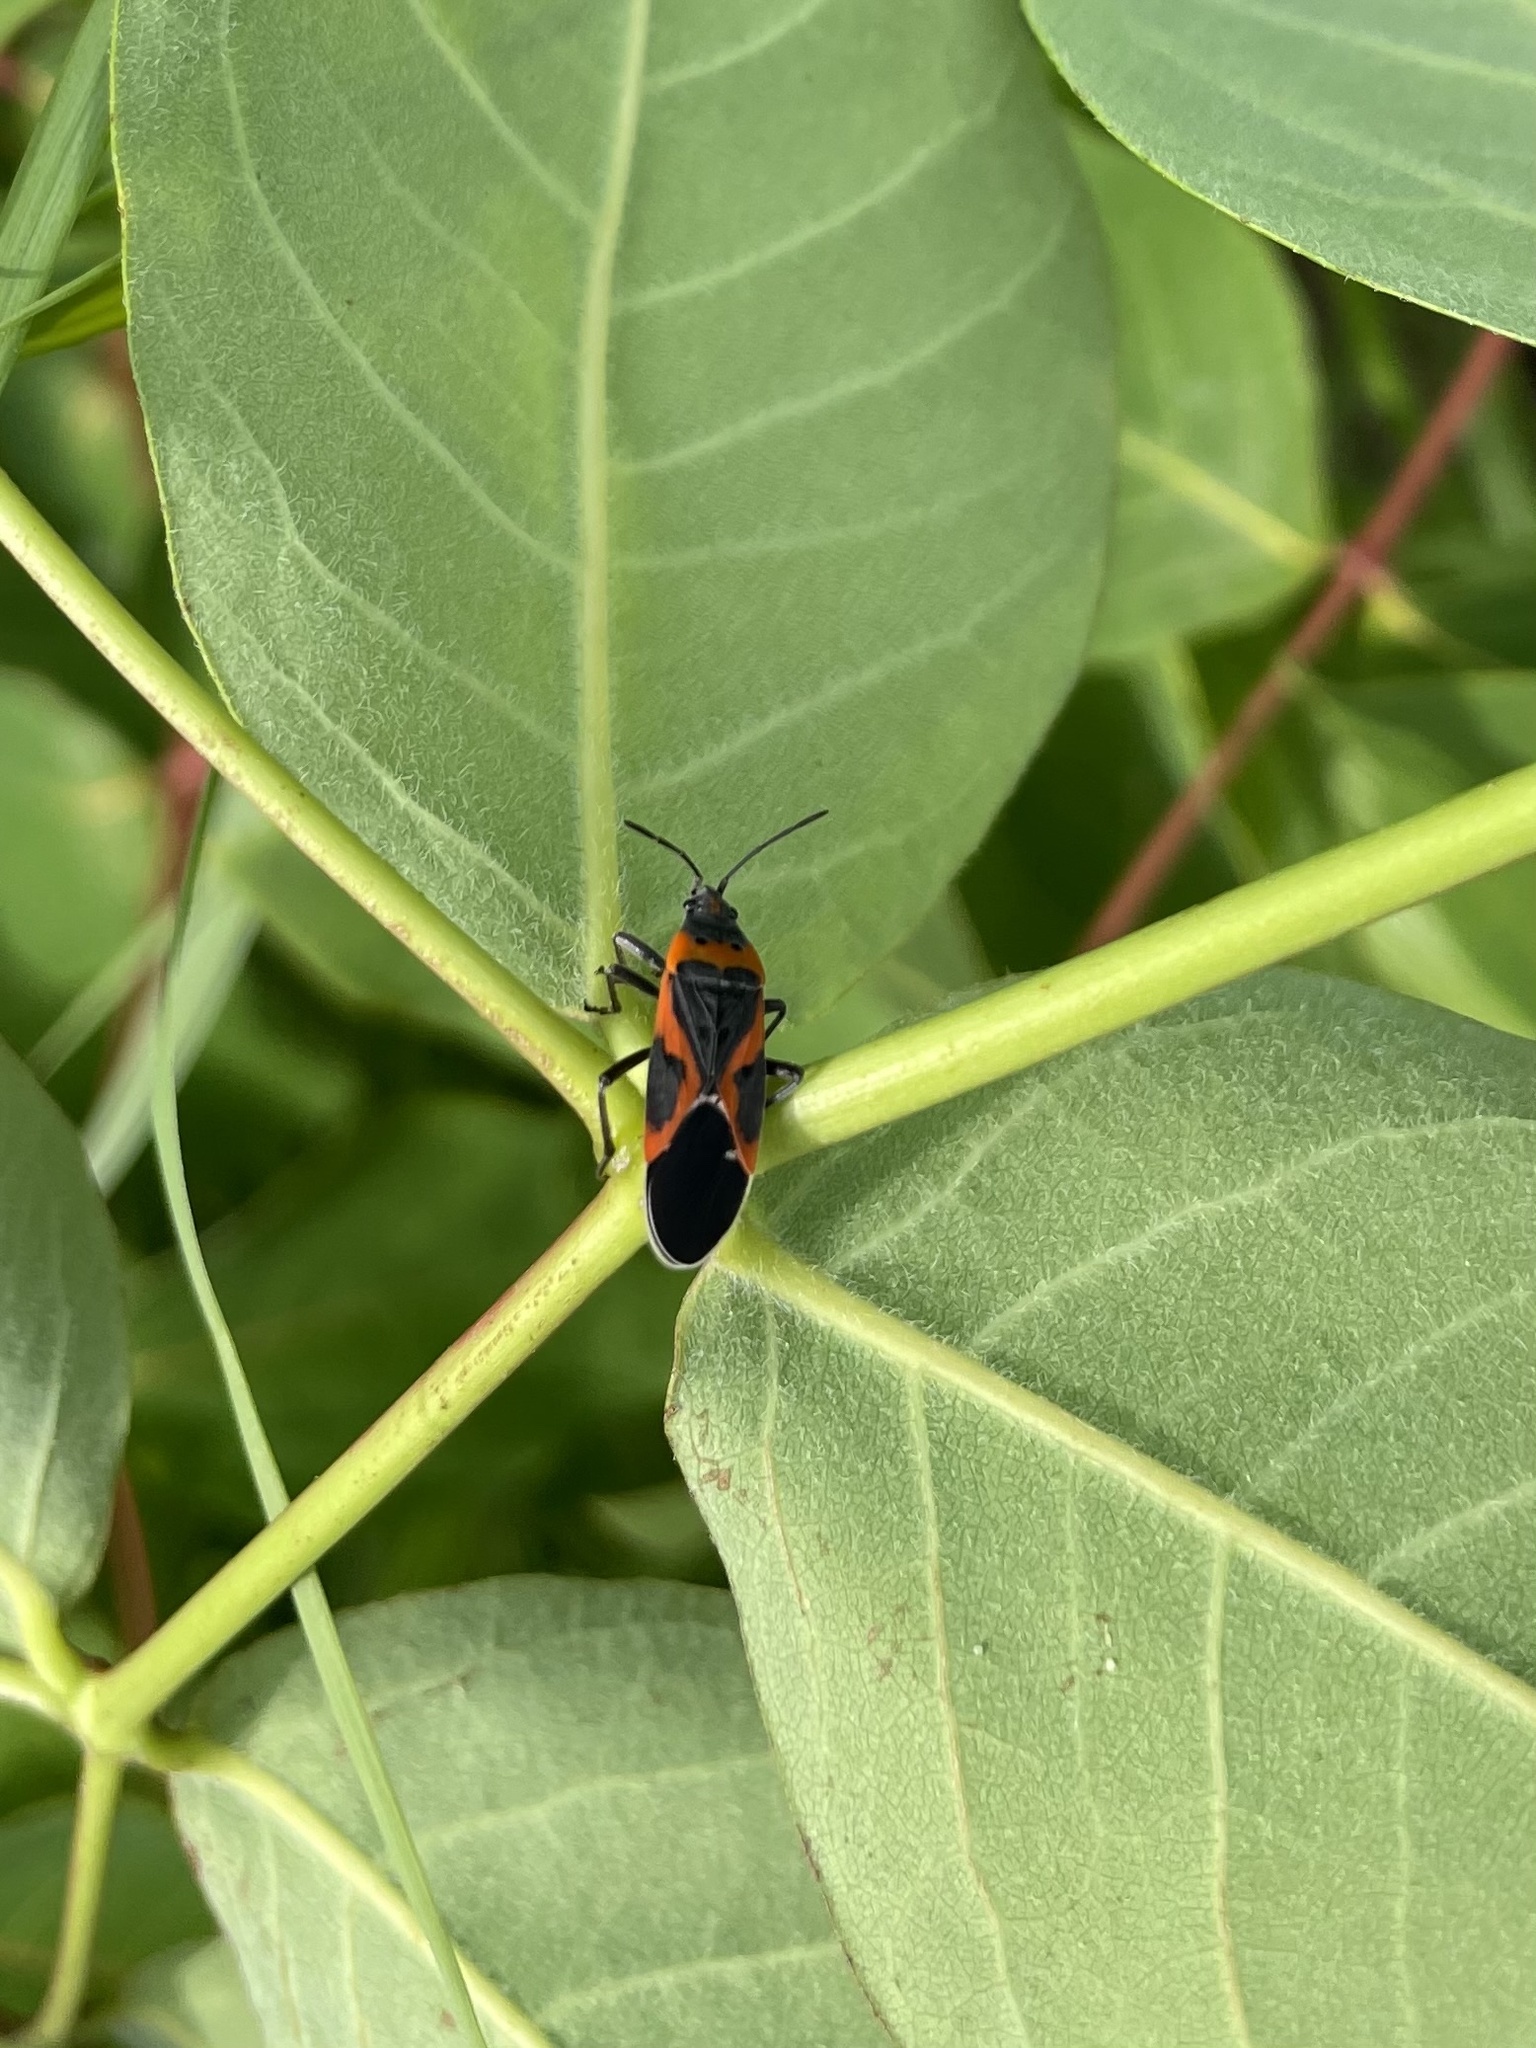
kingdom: Animalia
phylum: Arthropoda
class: Insecta
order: Hemiptera
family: Lygaeidae
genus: Lygaeus
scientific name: Lygaeus kalmii
